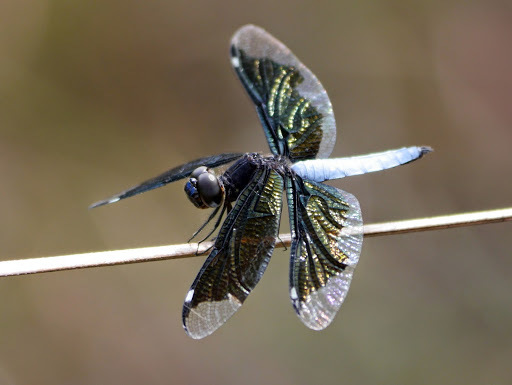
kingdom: Animalia
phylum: Arthropoda
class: Insecta
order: Odonata
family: Libellulidae
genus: Palpopleura
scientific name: Palpopleura lucia
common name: Lucia widow
